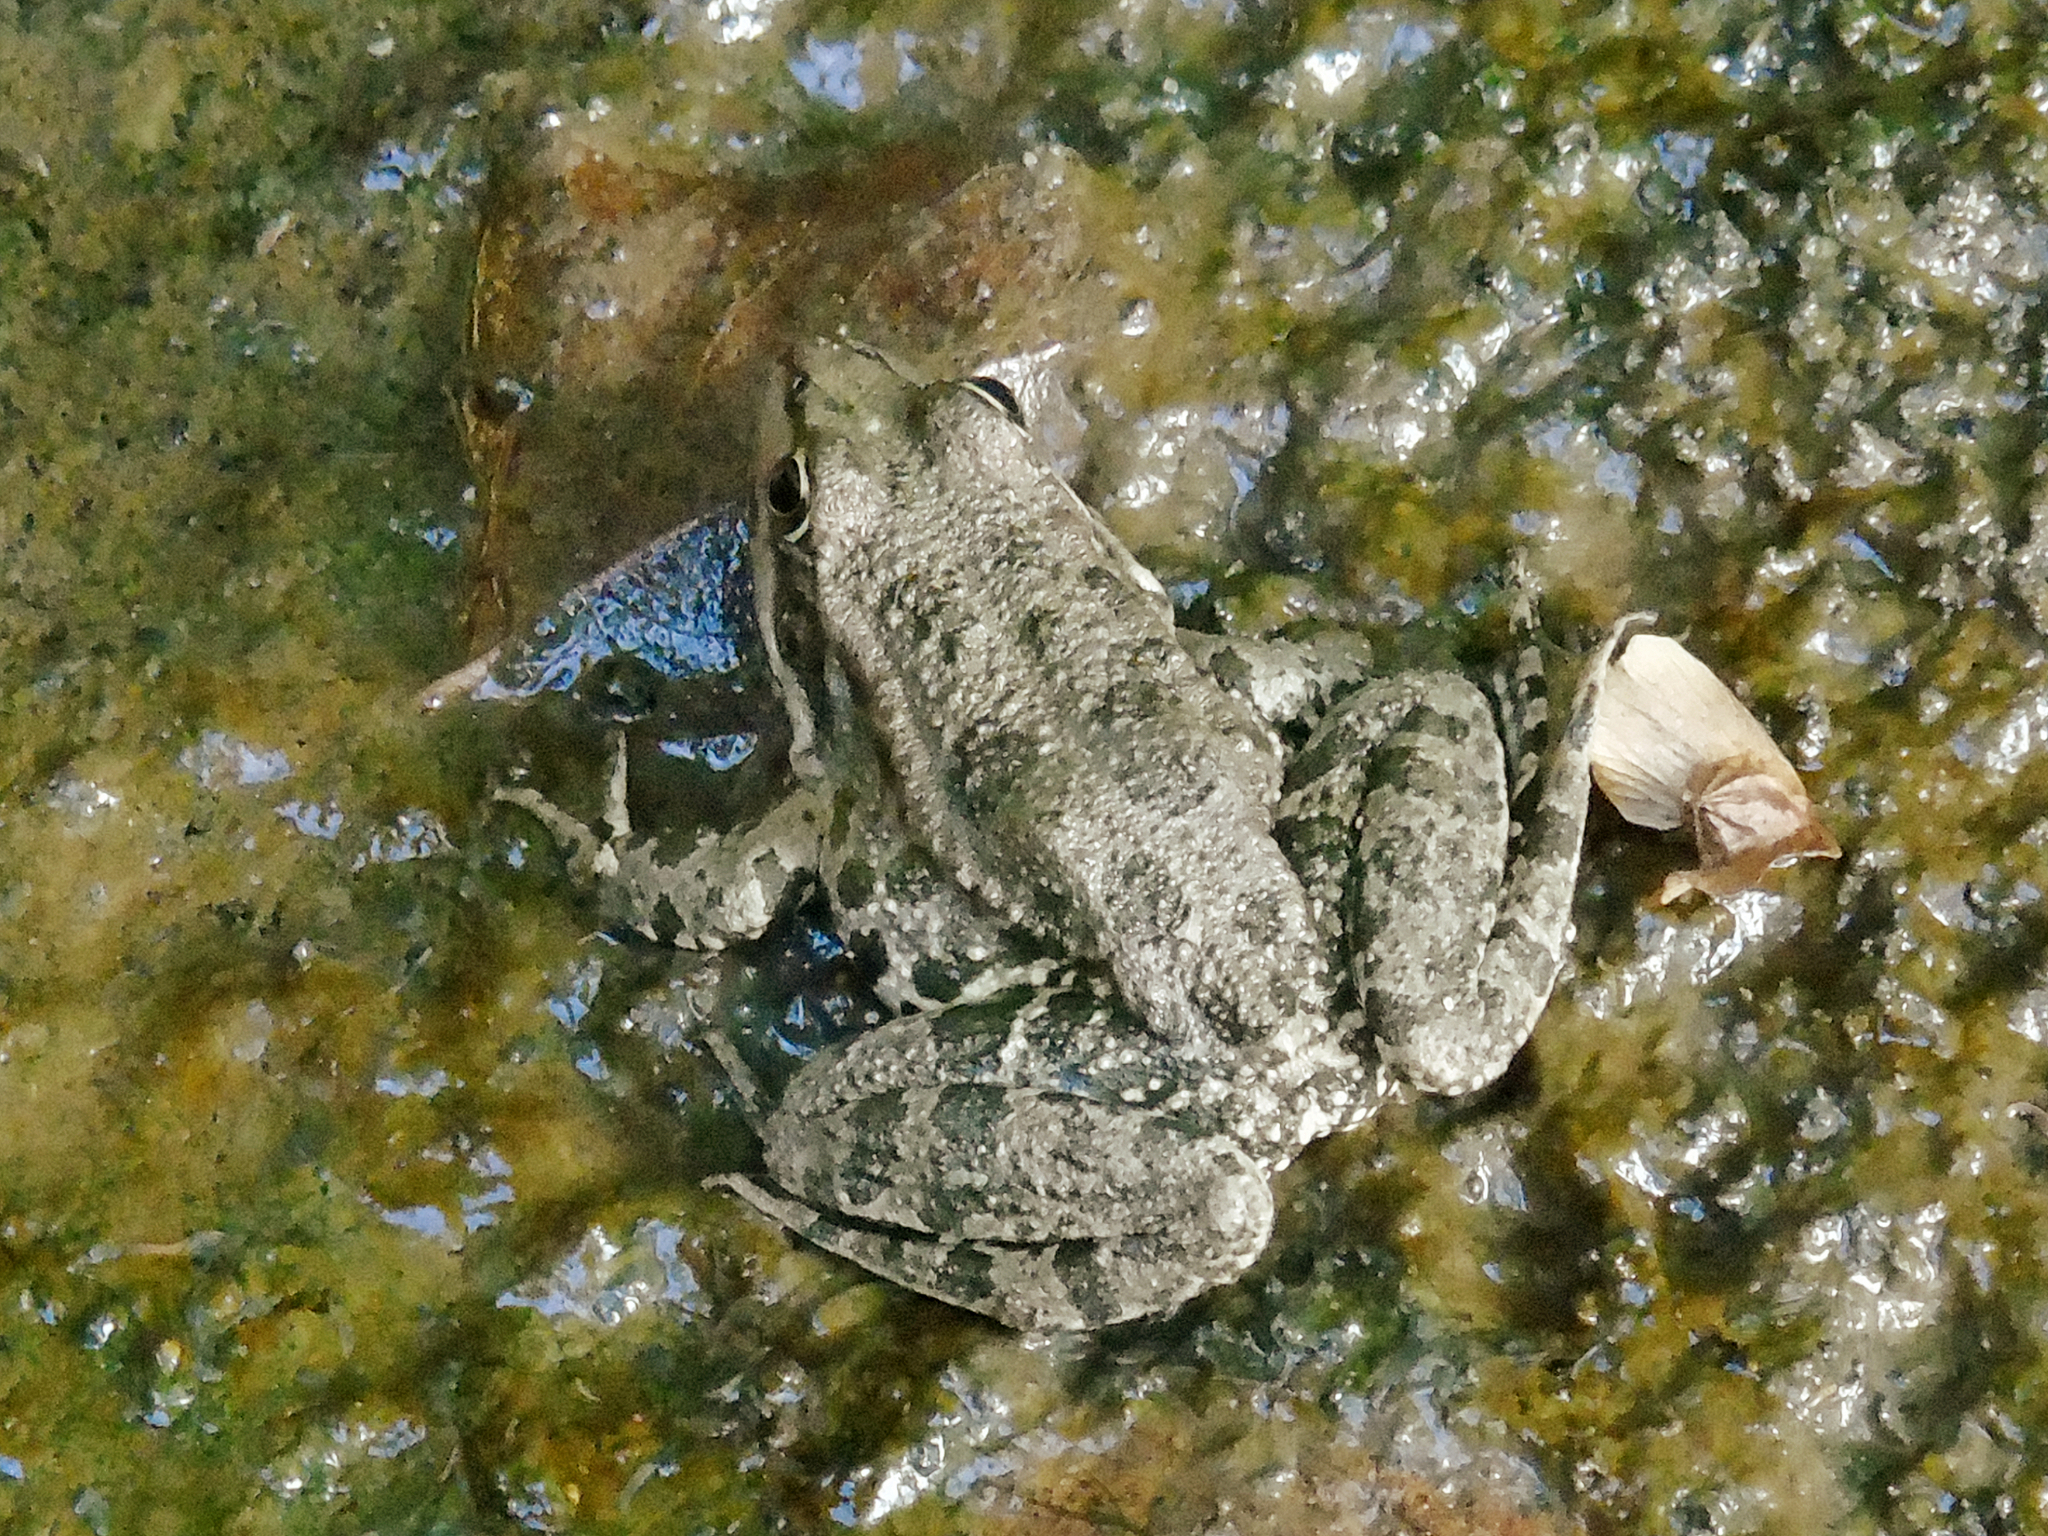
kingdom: Animalia
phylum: Chordata
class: Amphibia
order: Anura
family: Ranidae
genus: Pelophylax
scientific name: Pelophylax ridibundus
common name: Marsh frog
